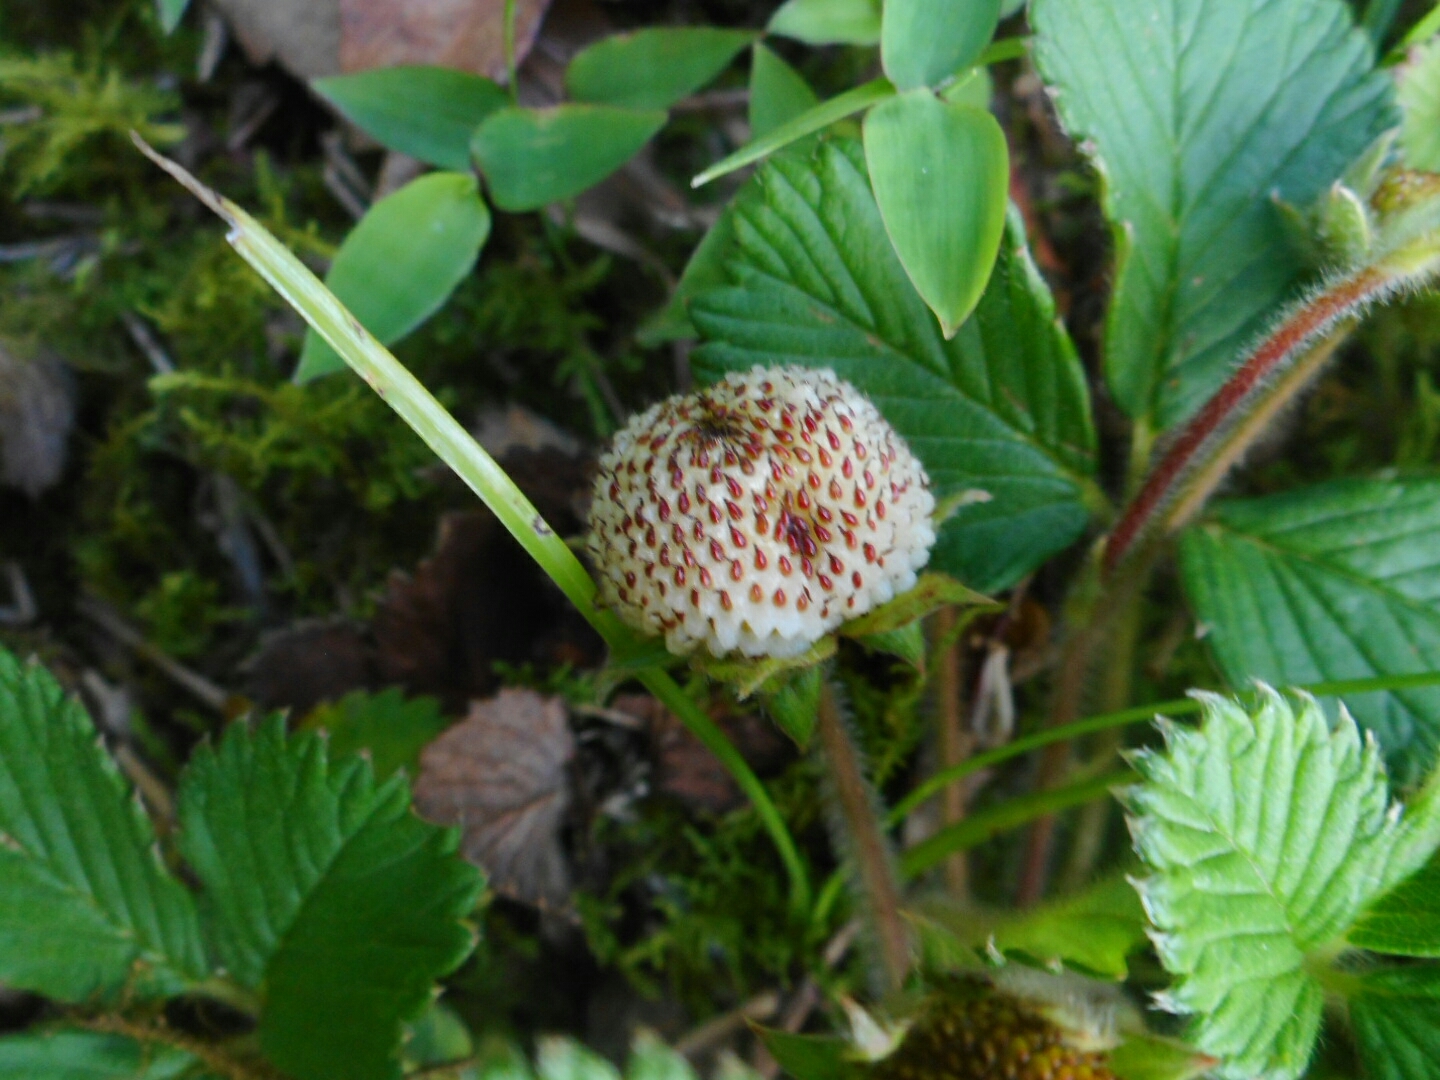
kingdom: Plantae
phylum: Tracheophyta
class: Magnoliopsida
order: Rosales
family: Rosaceae
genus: Fragaria
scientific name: Fragaria nilgerrensis
